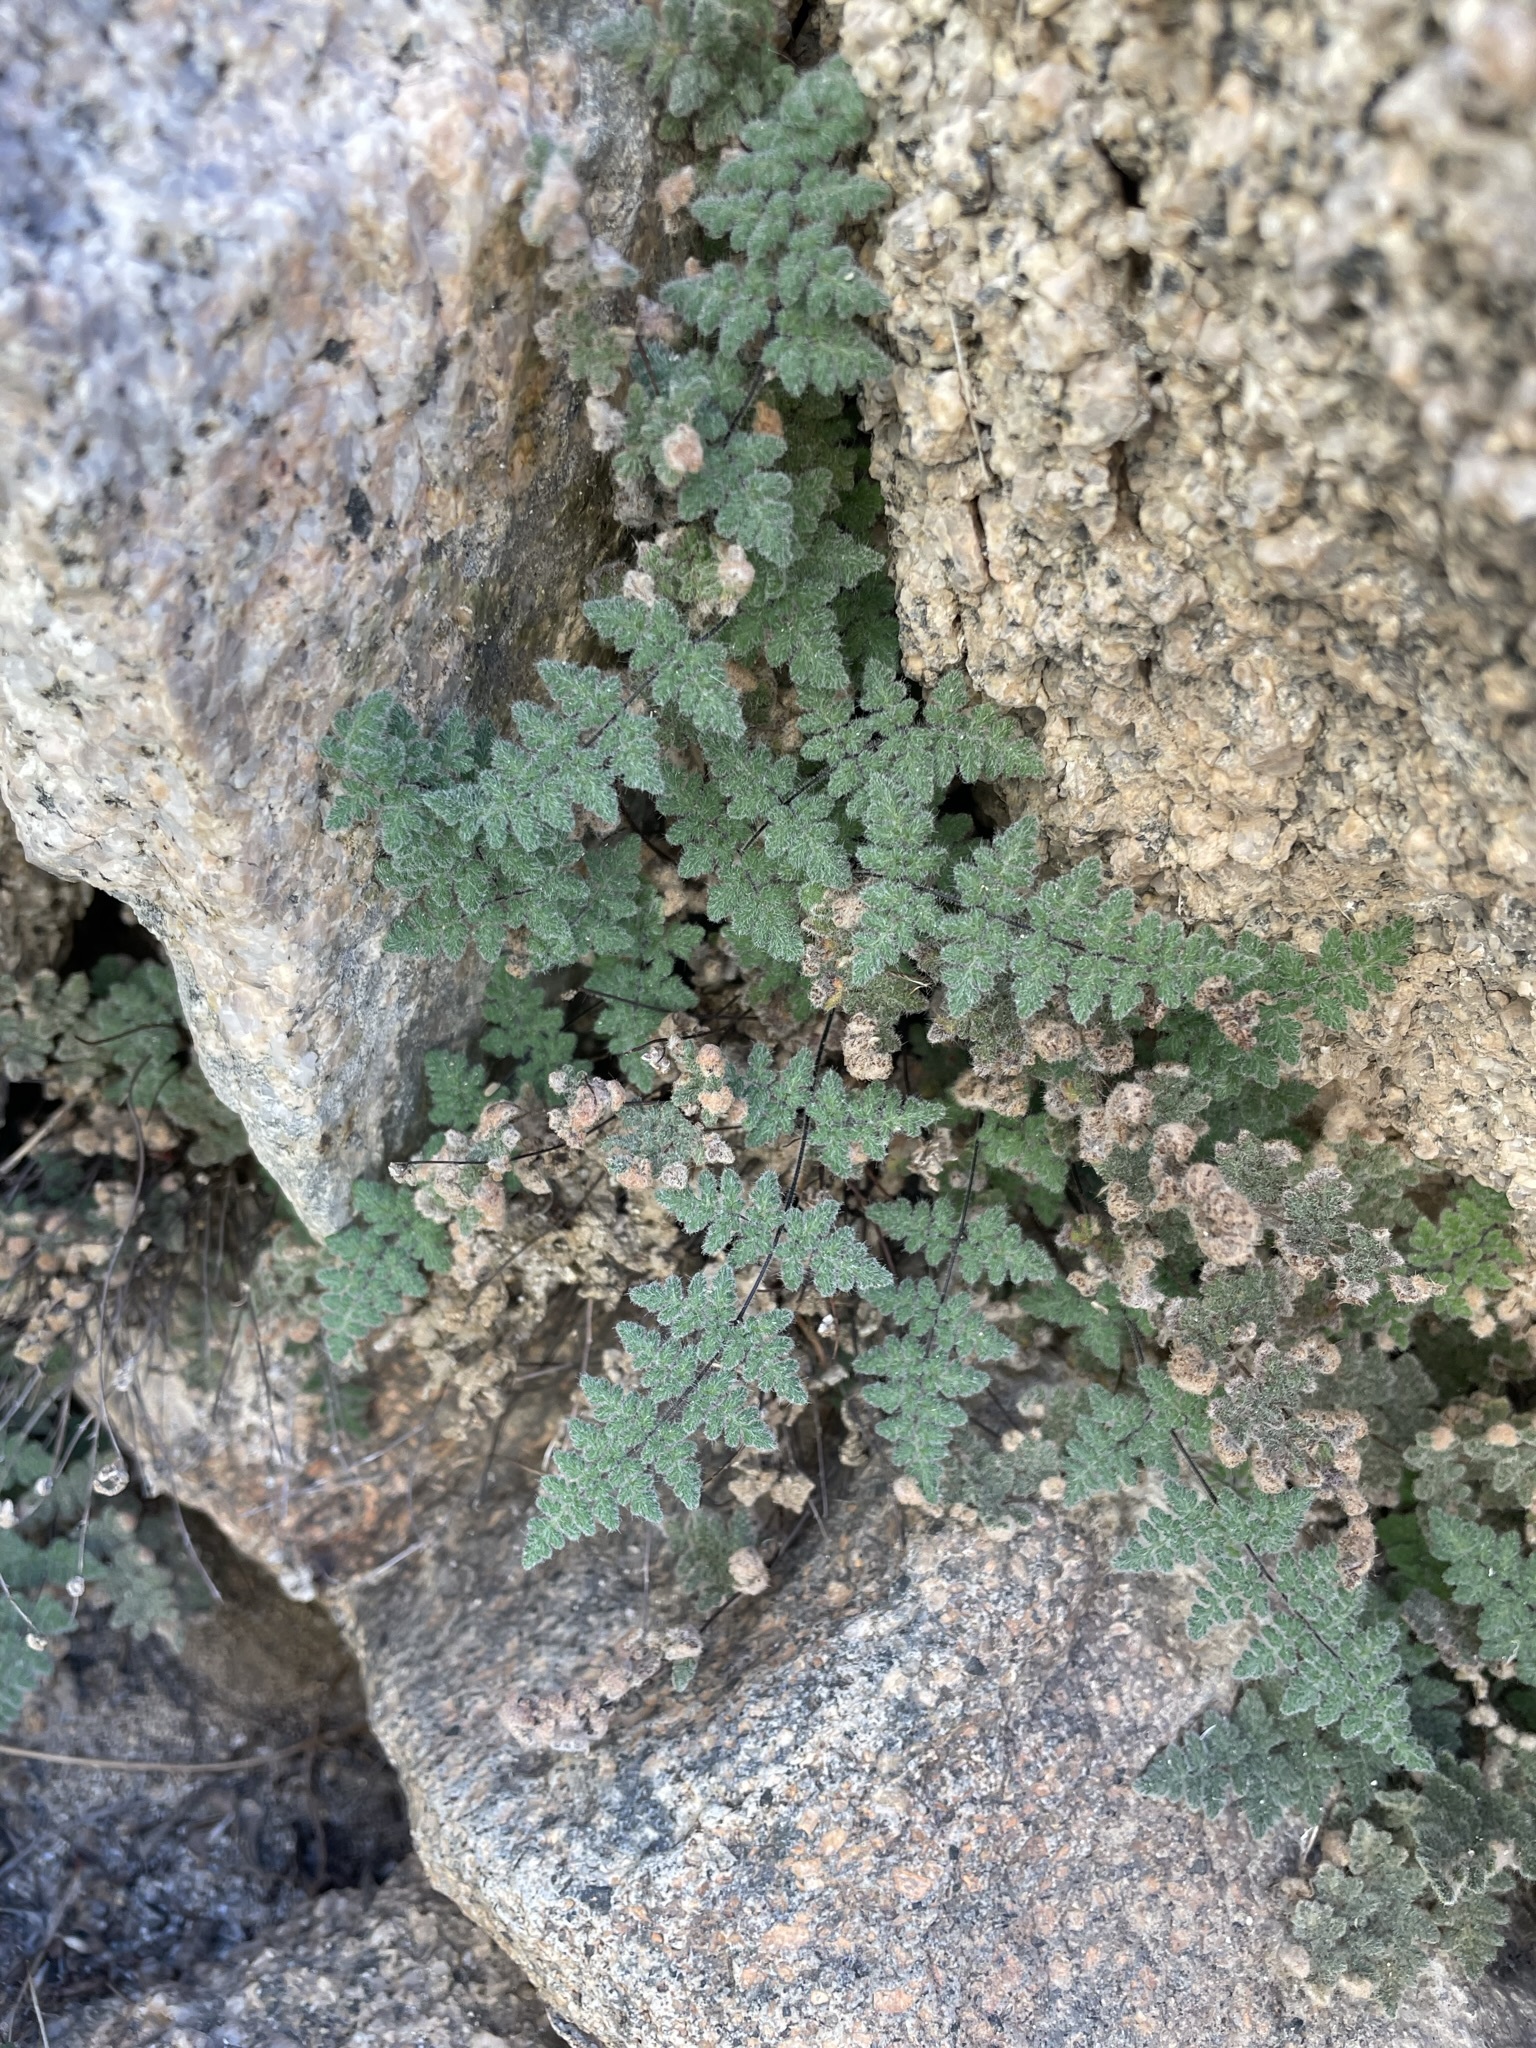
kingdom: Plantae
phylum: Tracheophyta
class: Polypodiopsida
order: Polypodiales
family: Pteridaceae
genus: Myriopteris
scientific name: Myriopteris parryi
